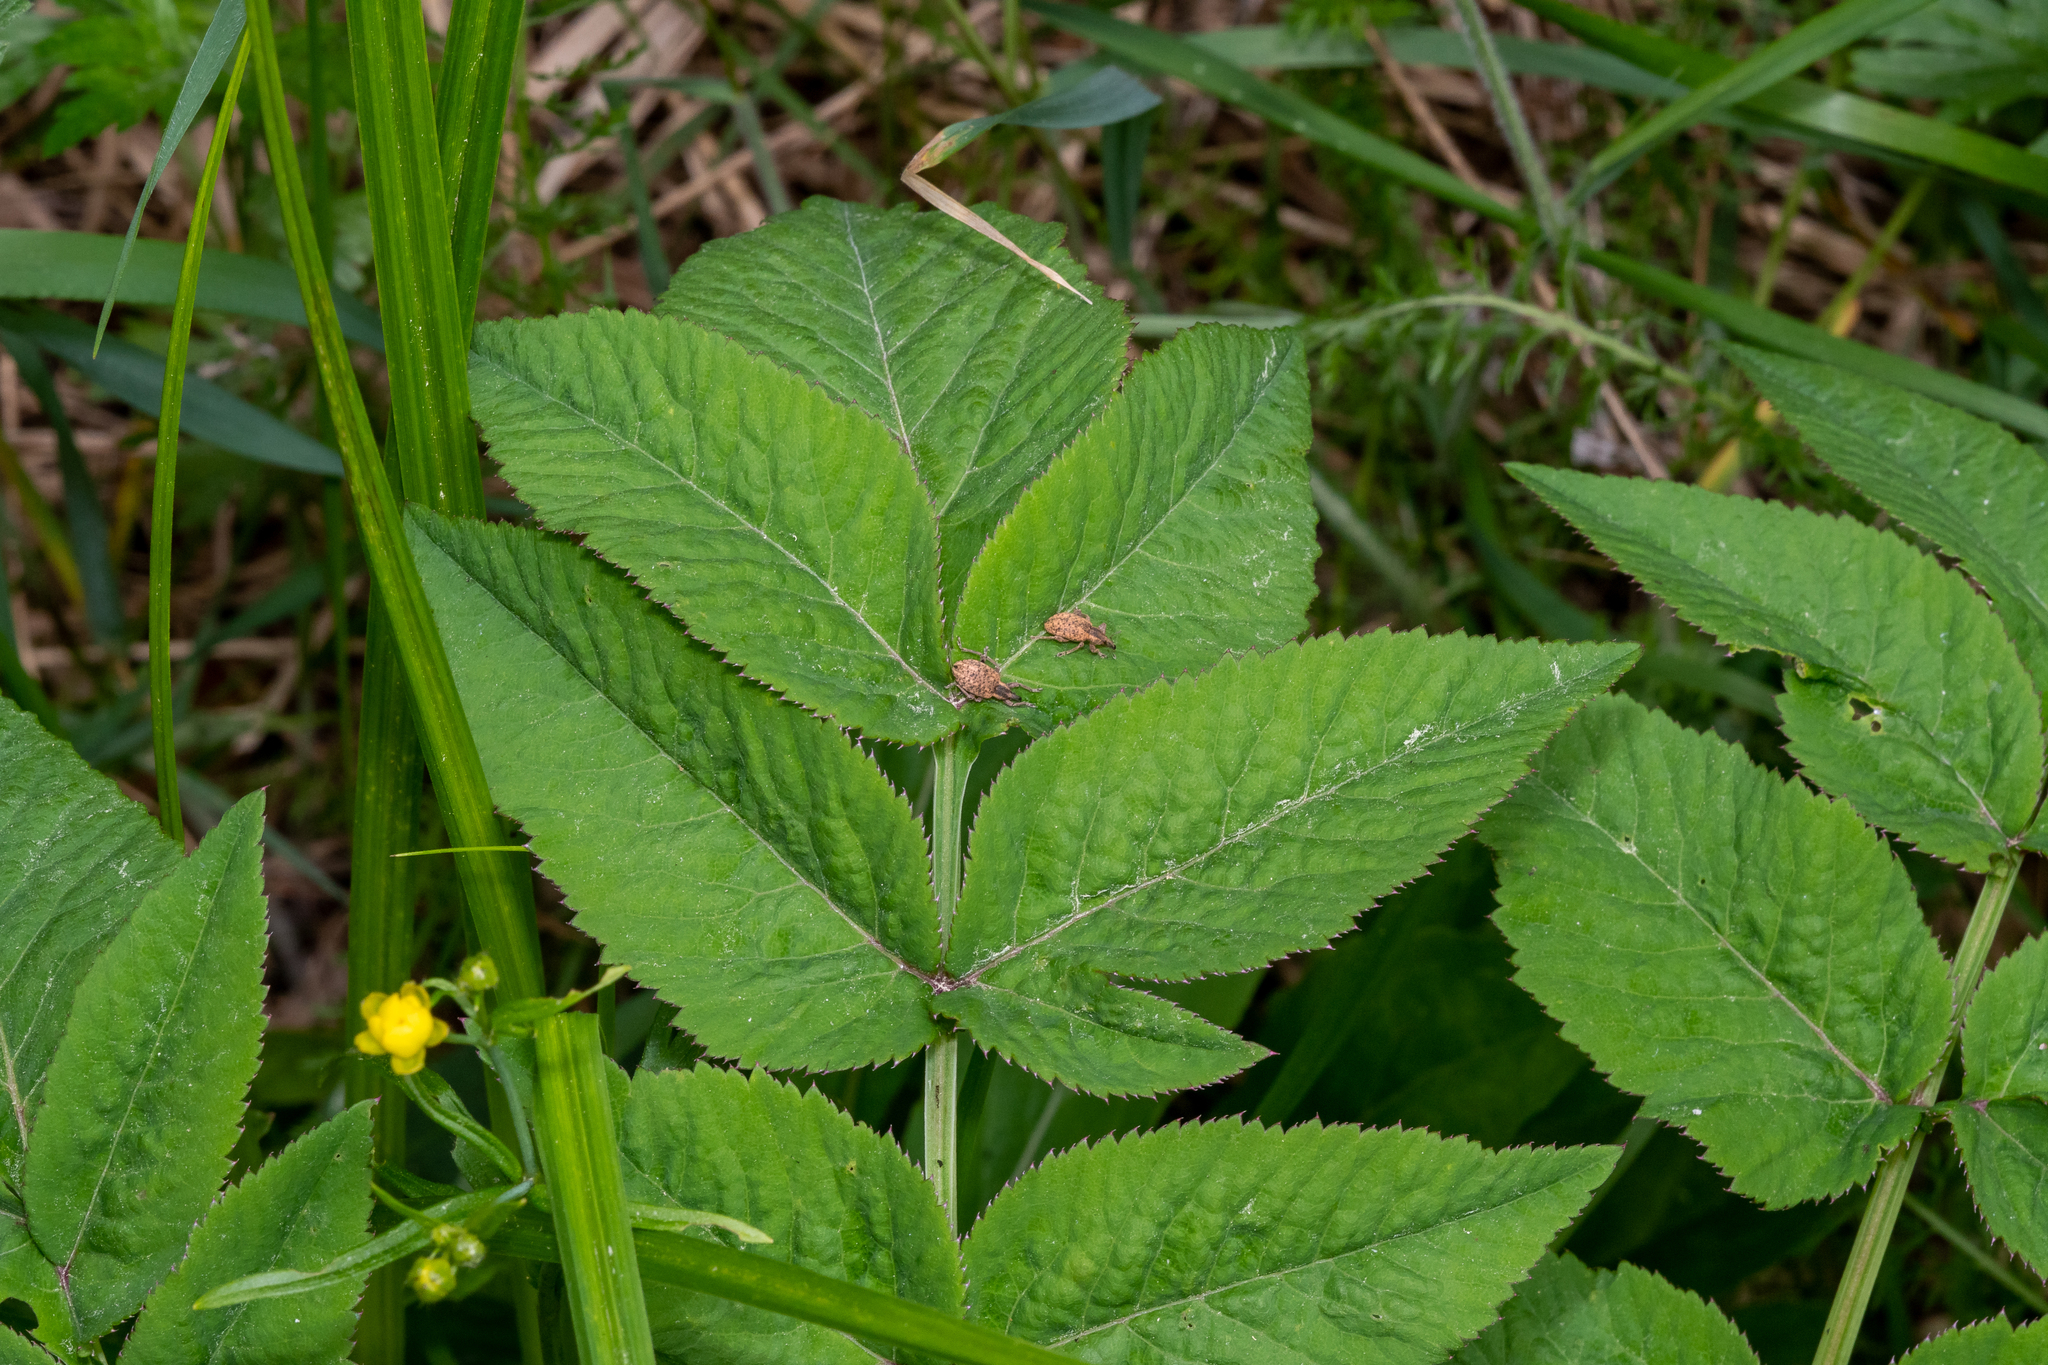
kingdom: Animalia
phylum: Arthropoda
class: Insecta
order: Coleoptera
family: Curculionidae
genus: Hypera
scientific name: Hypera conmaculata
